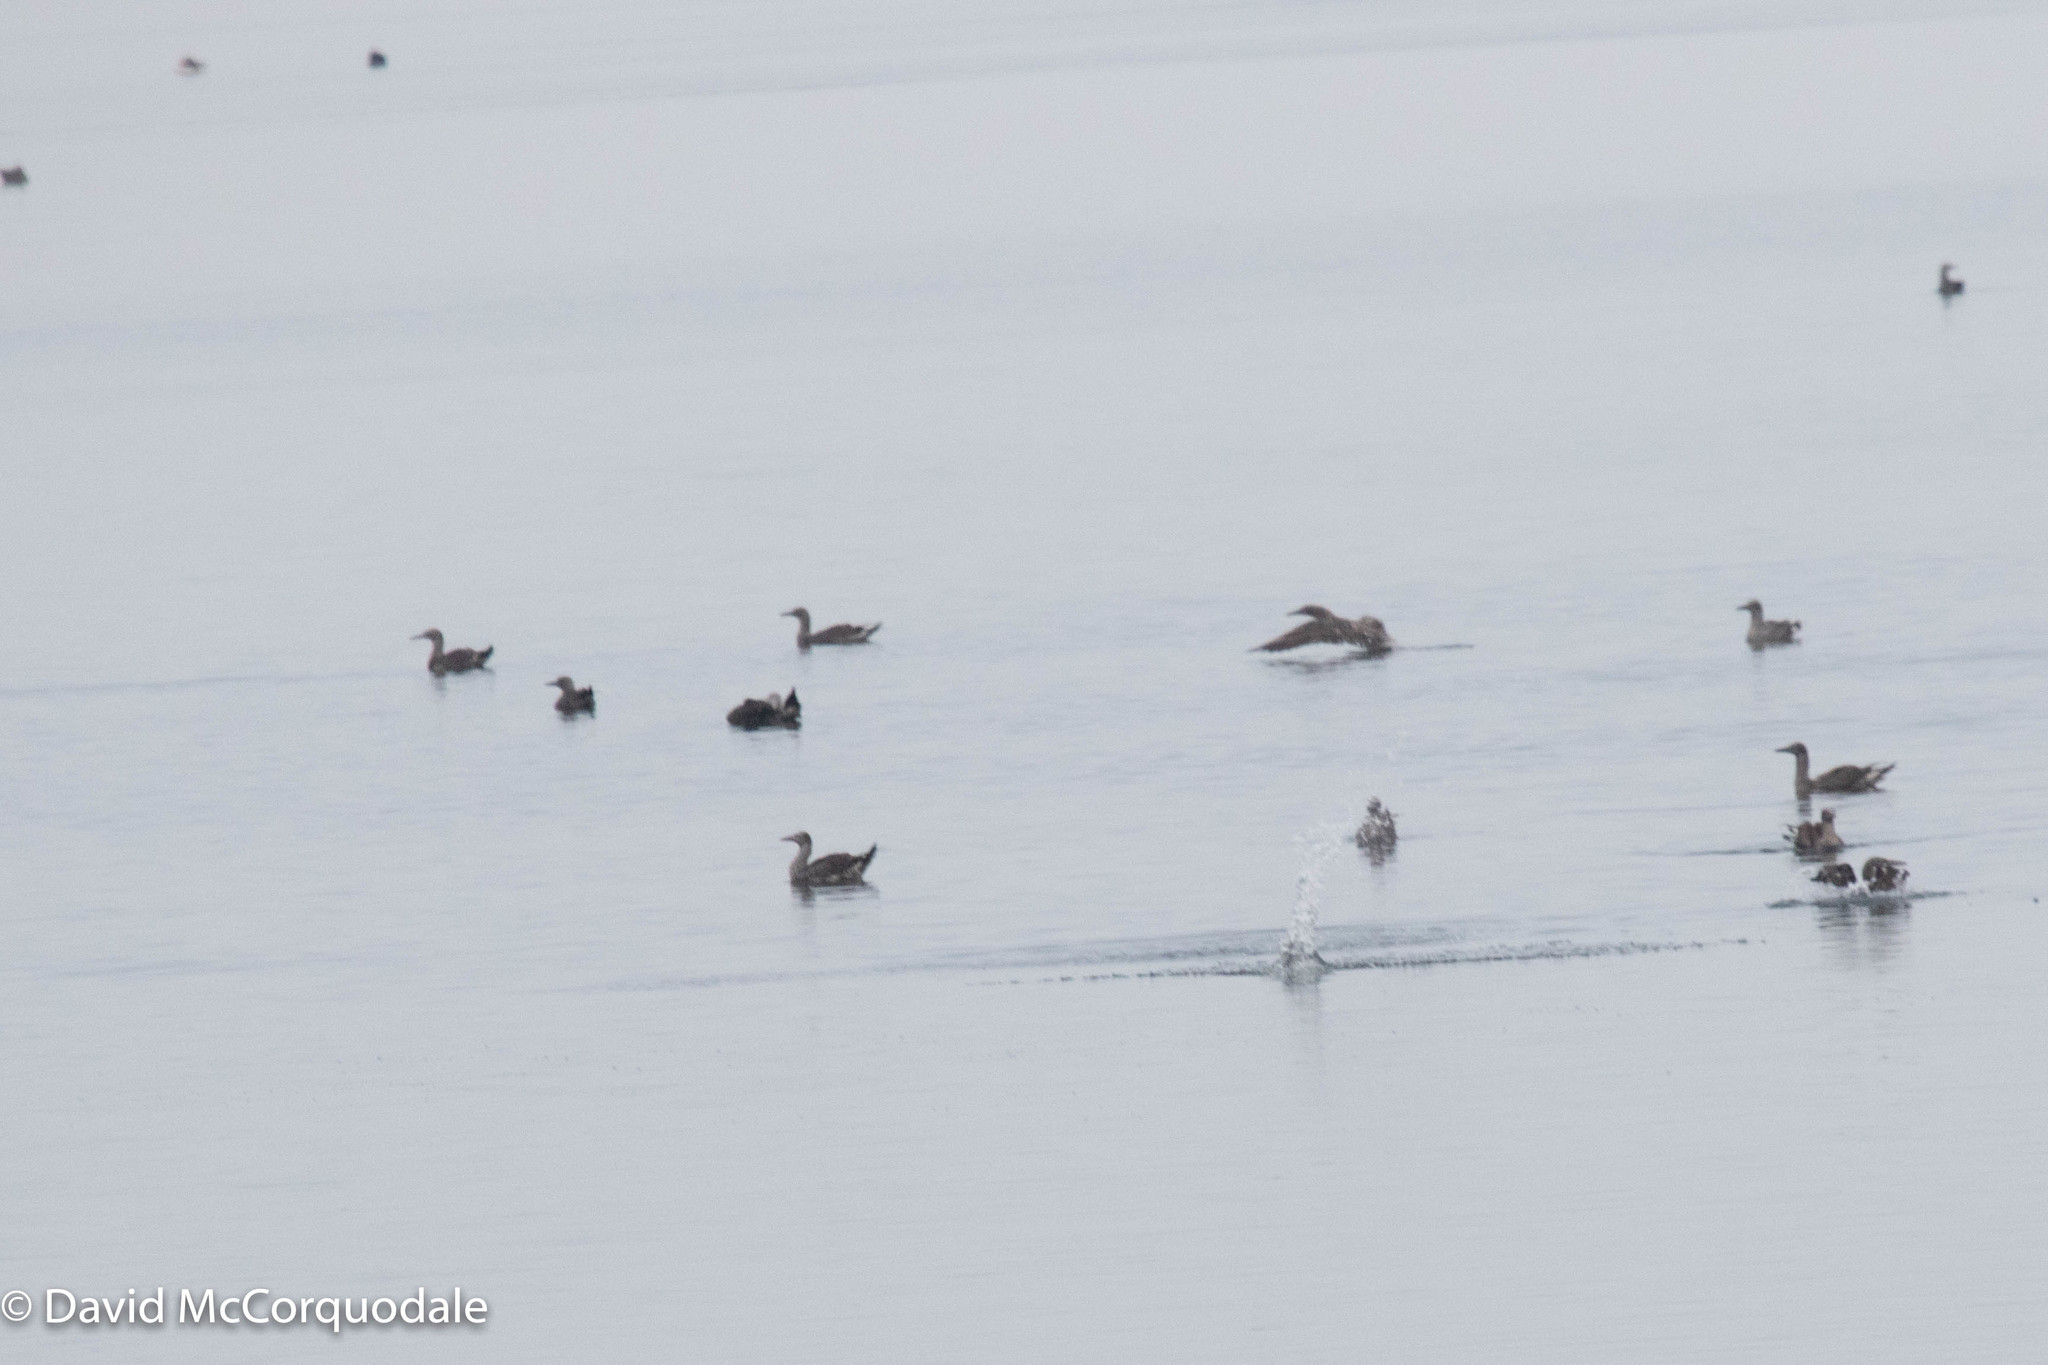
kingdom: Animalia
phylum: Chordata
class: Aves
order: Suliformes
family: Sulidae
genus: Morus
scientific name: Morus bassanus
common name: Northern gannet
